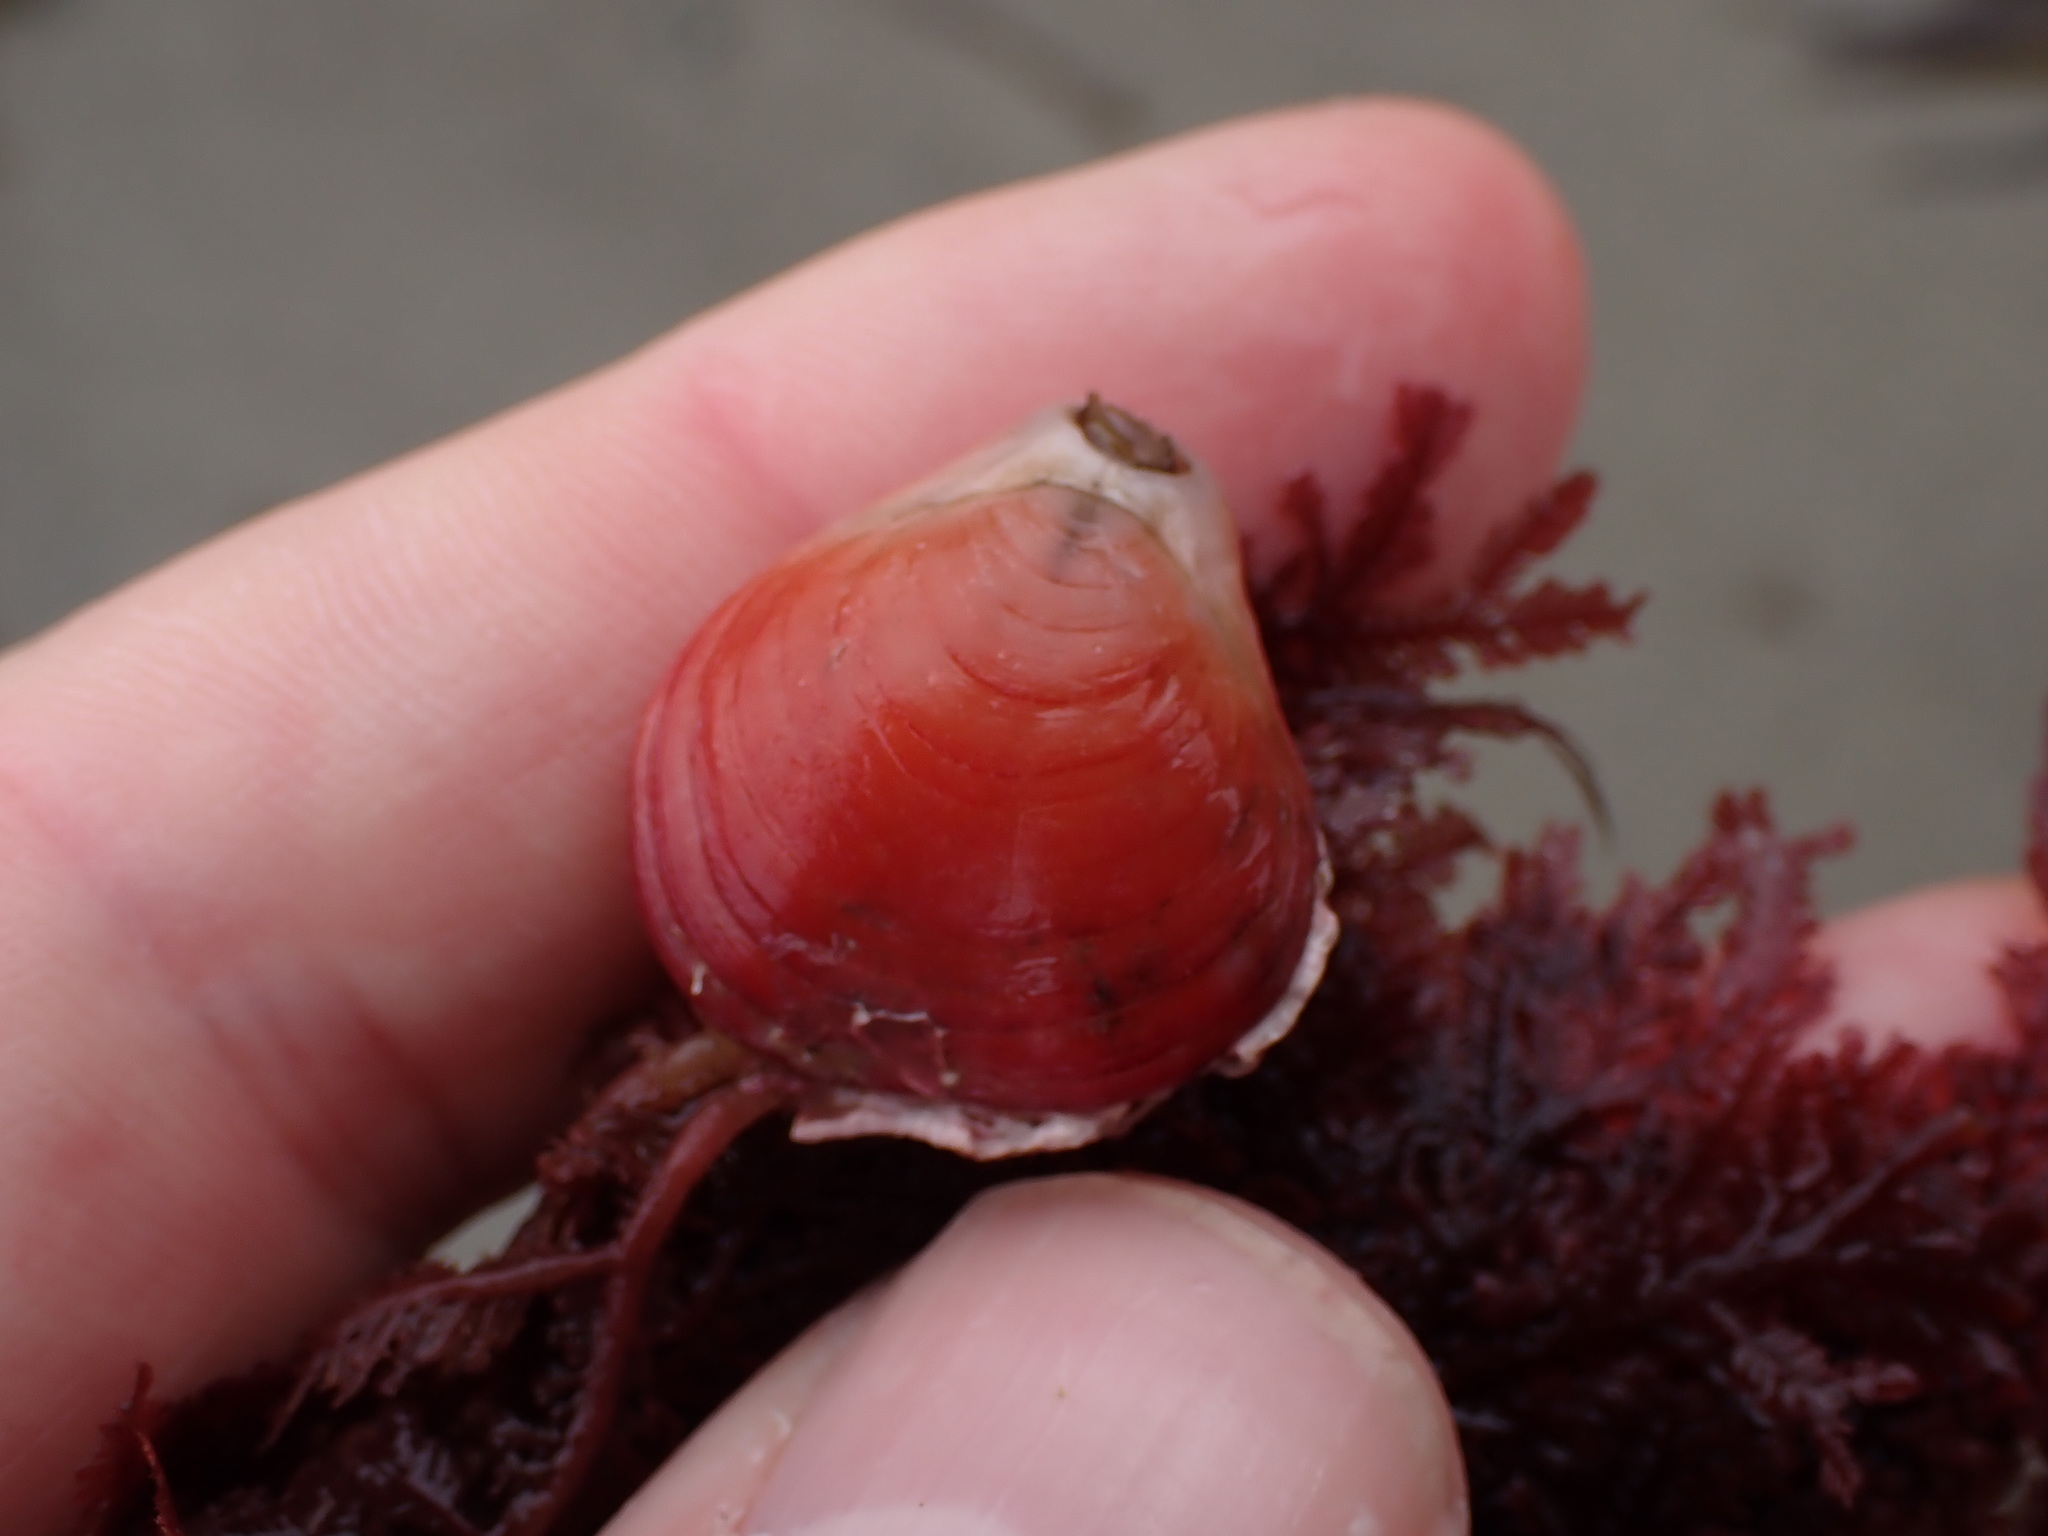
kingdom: Animalia
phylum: Brachiopoda
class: Rhynchonellata
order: Terebratulida
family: Terebratellidae
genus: Calloria
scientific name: Calloria inconspicua
